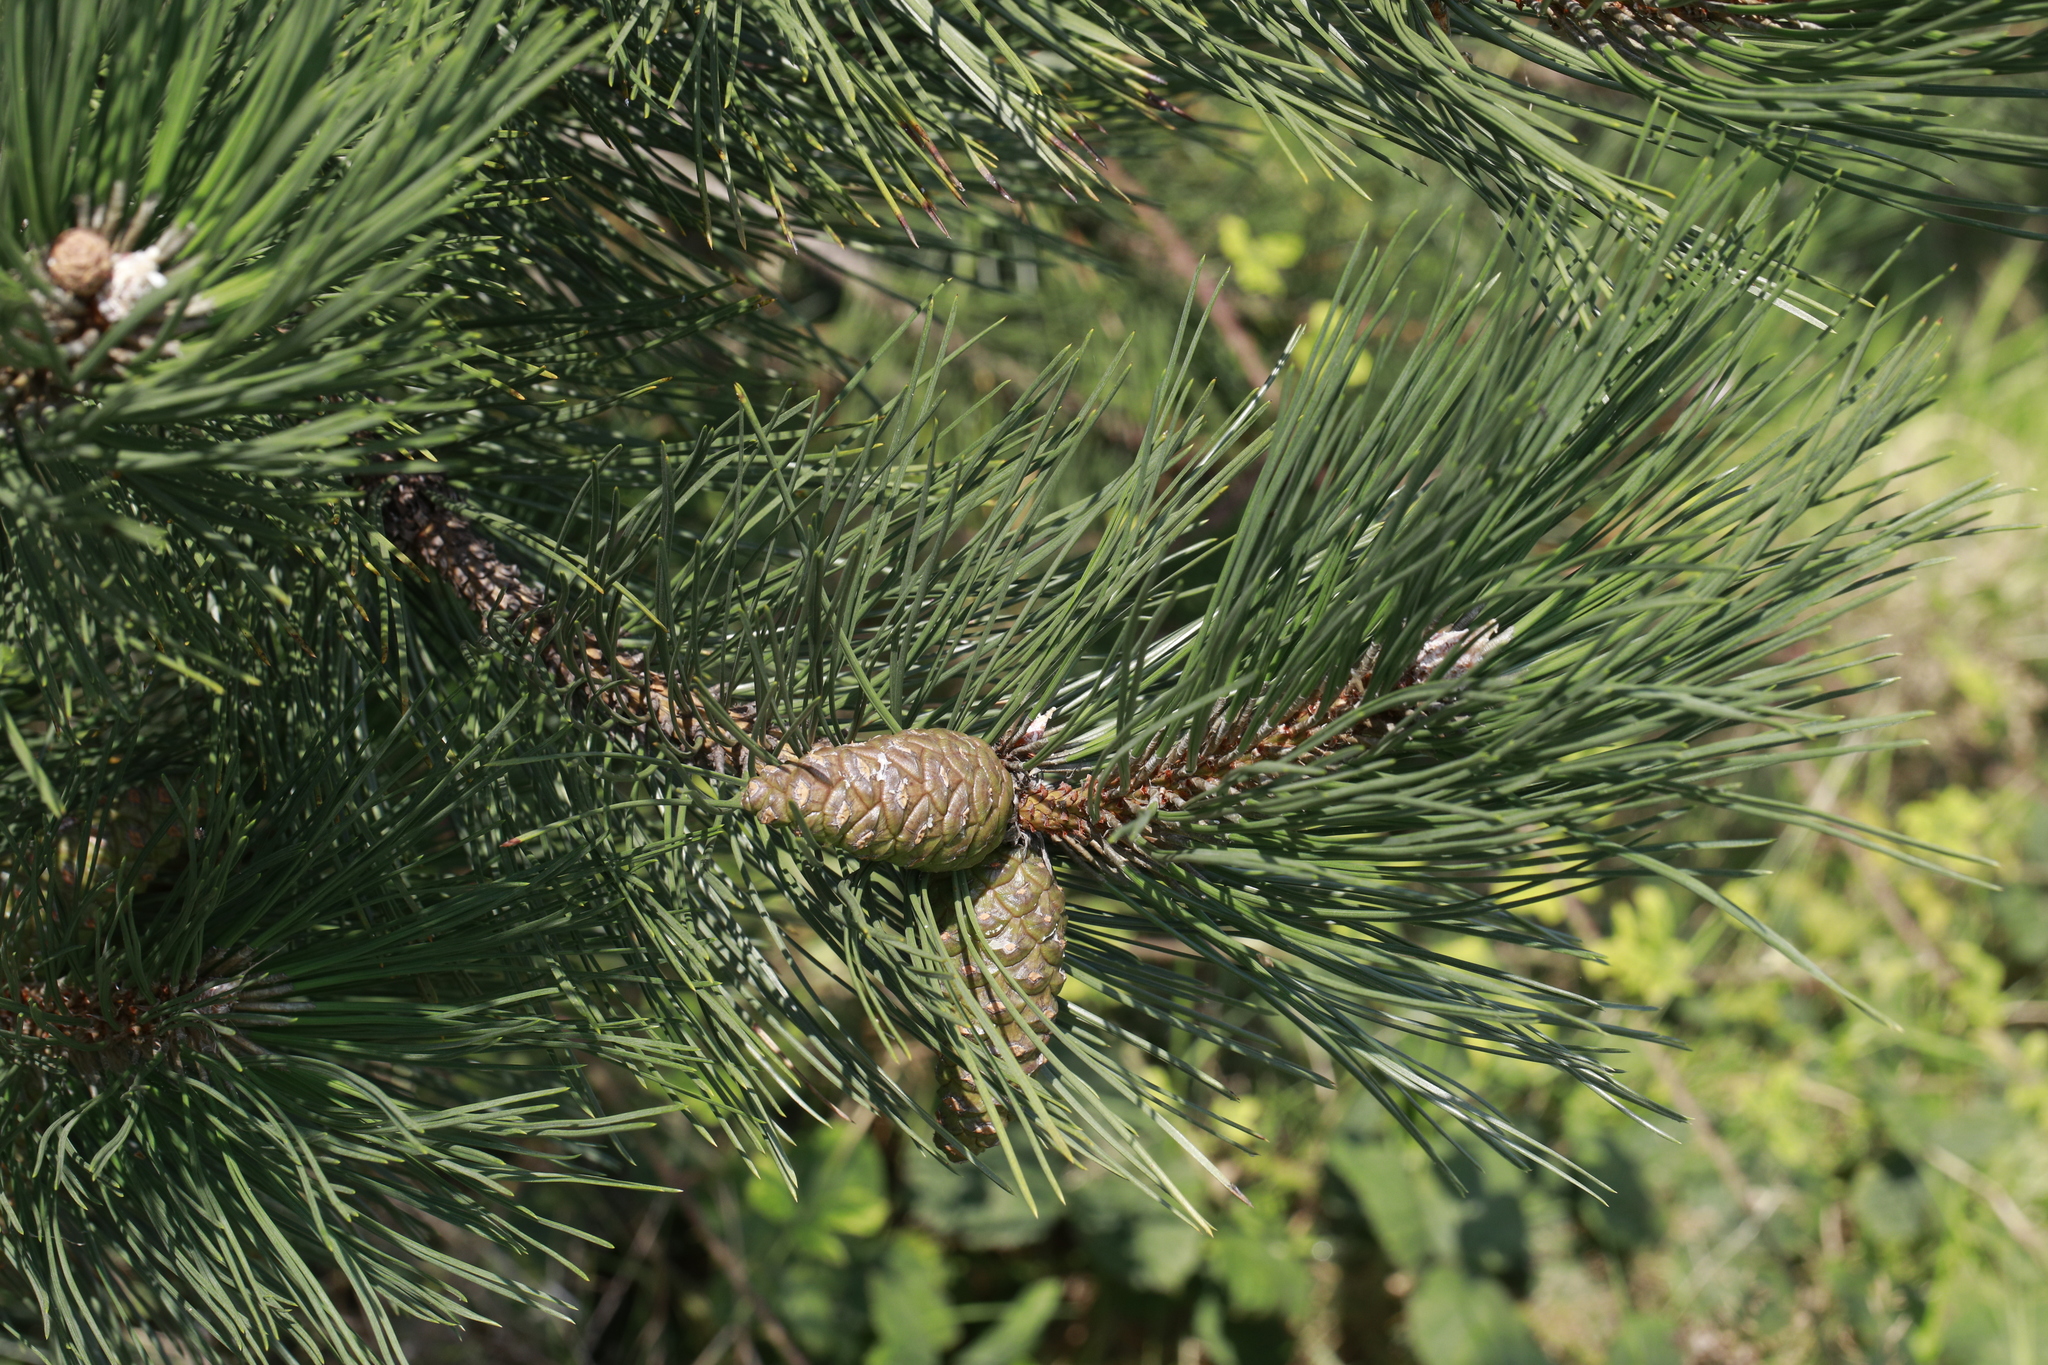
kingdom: Plantae
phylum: Tracheophyta
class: Pinopsida
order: Pinales
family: Pinaceae
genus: Pinus
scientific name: Pinus sylvestris
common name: Scots pine
